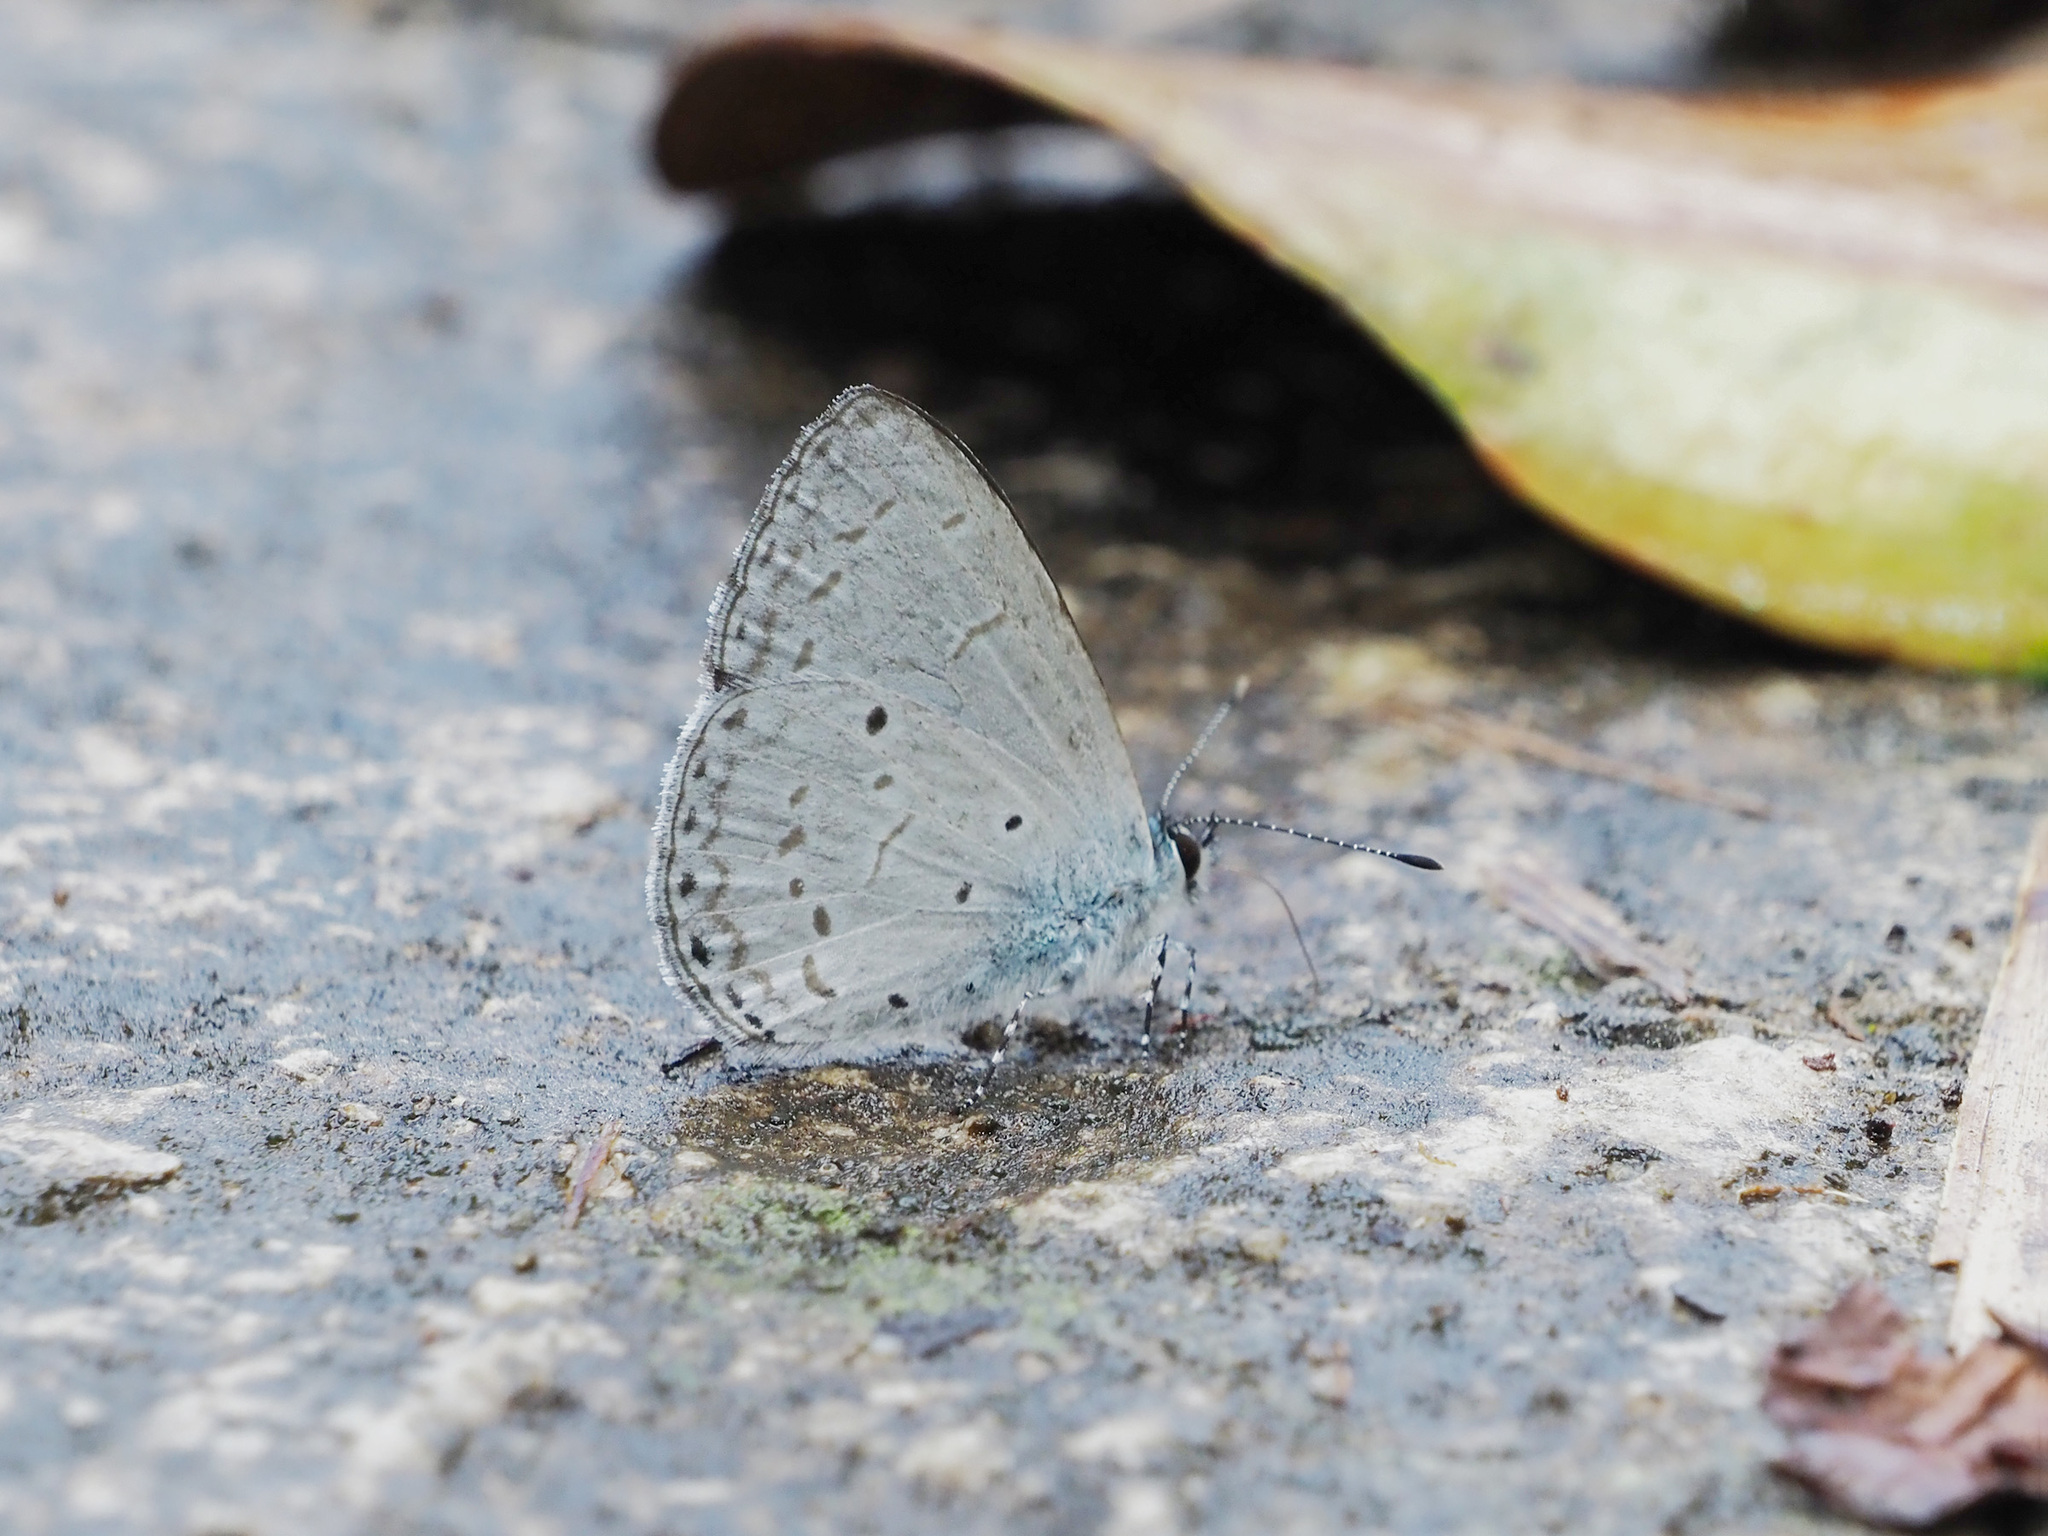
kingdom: Animalia
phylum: Arthropoda
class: Insecta
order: Lepidoptera
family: Lycaenidae
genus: Udara
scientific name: Udara
